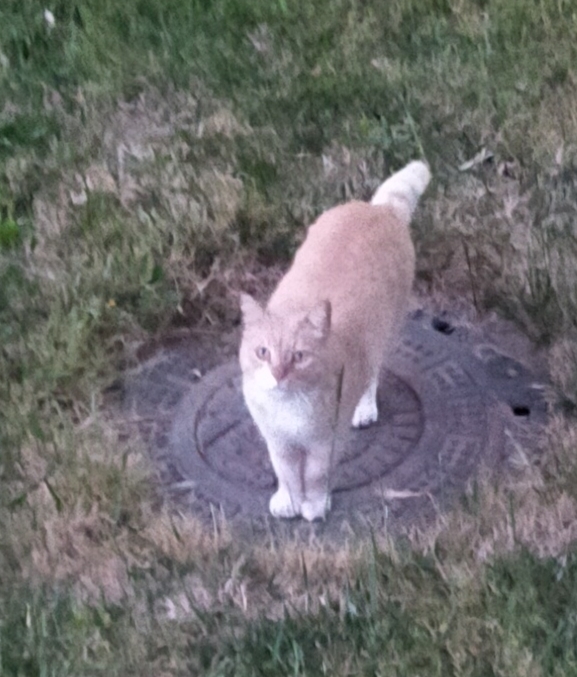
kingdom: Animalia
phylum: Chordata
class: Mammalia
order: Carnivora
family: Felidae
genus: Felis
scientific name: Felis catus
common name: Domestic cat
